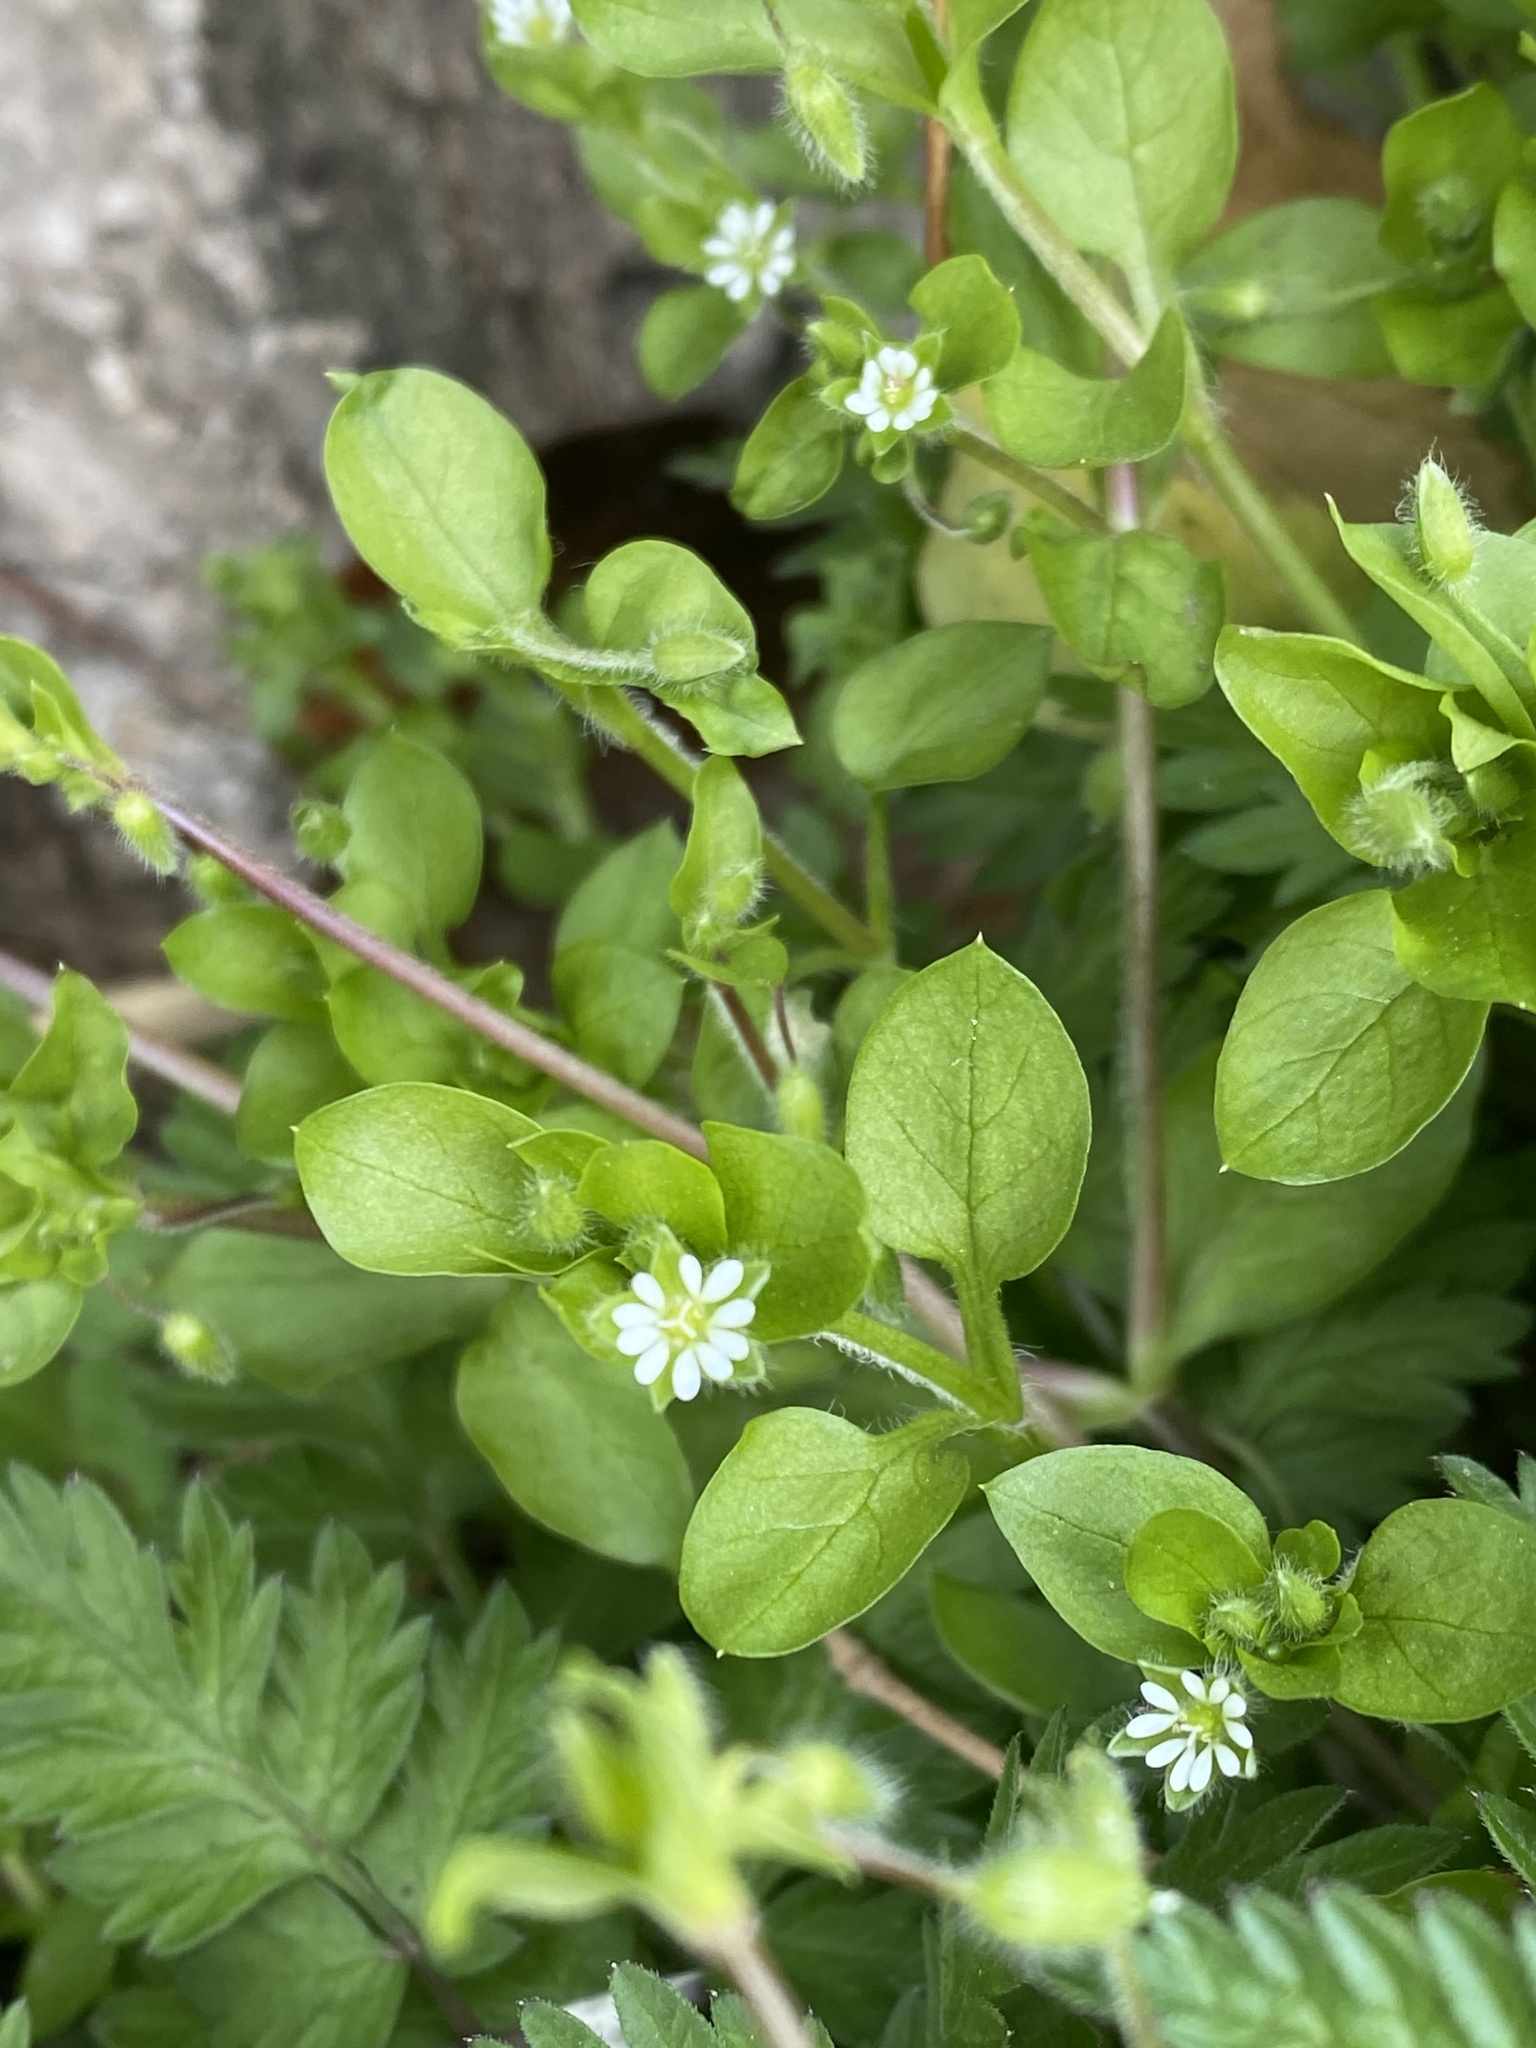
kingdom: Plantae
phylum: Tracheophyta
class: Magnoliopsida
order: Caryophyllales
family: Caryophyllaceae
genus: Stellaria
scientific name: Stellaria media
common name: Common chickweed
